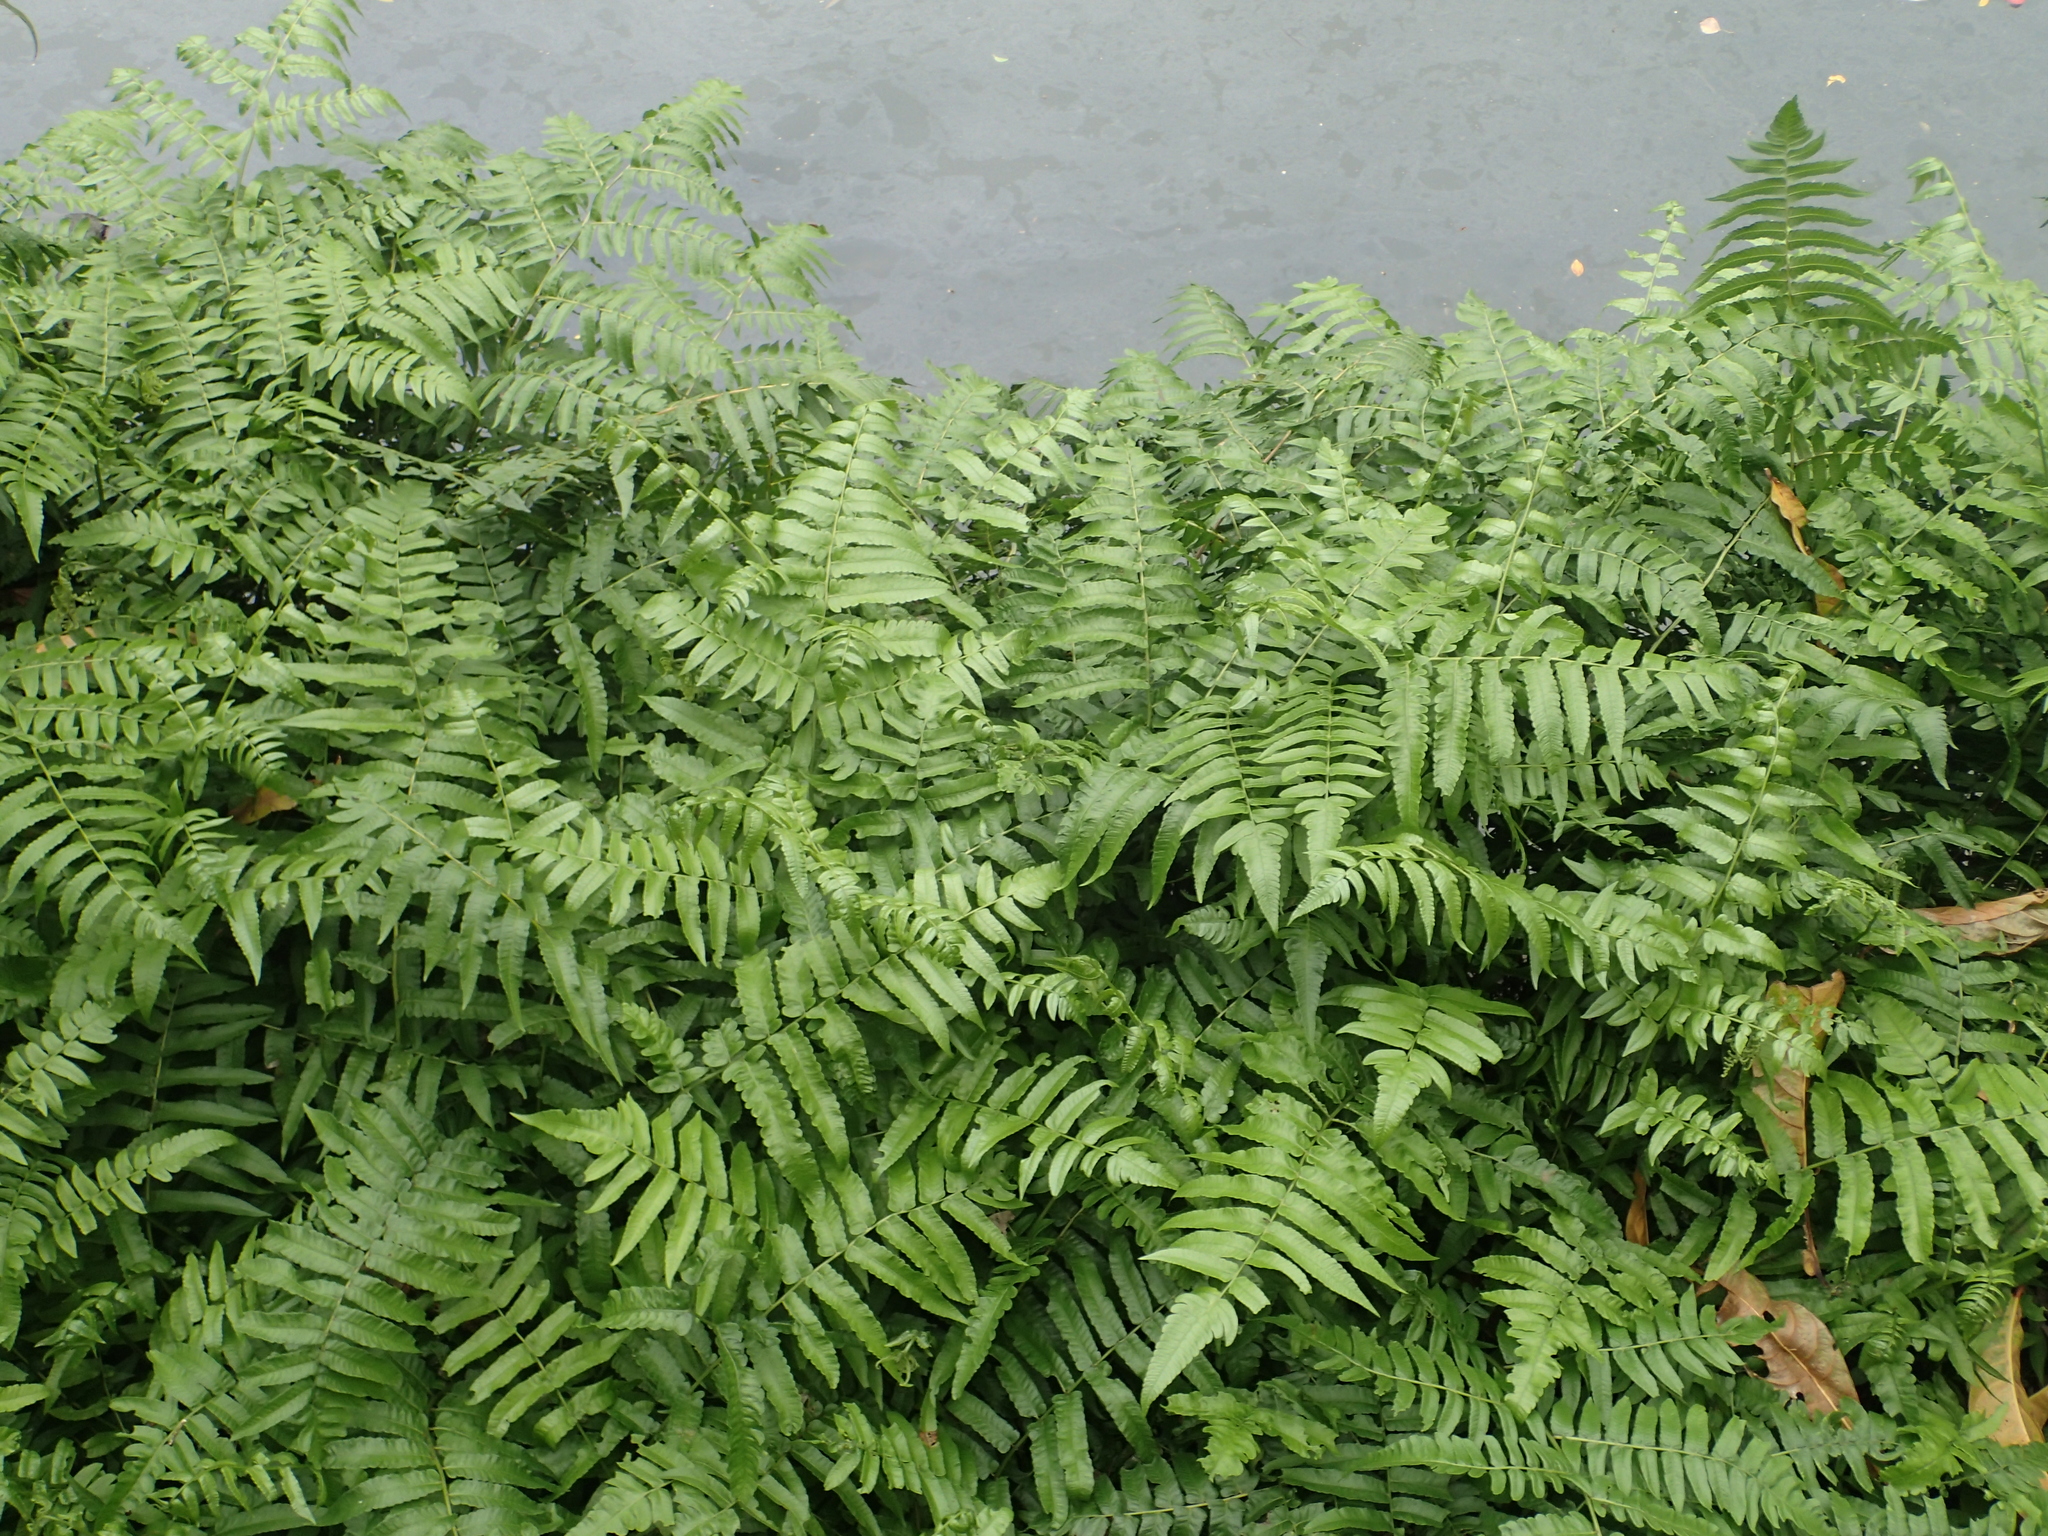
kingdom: Plantae
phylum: Tracheophyta
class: Polypodiopsida
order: Polypodiales
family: Athyriaceae
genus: Diplazium
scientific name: Diplazium esculentum
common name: Vegetable fern
